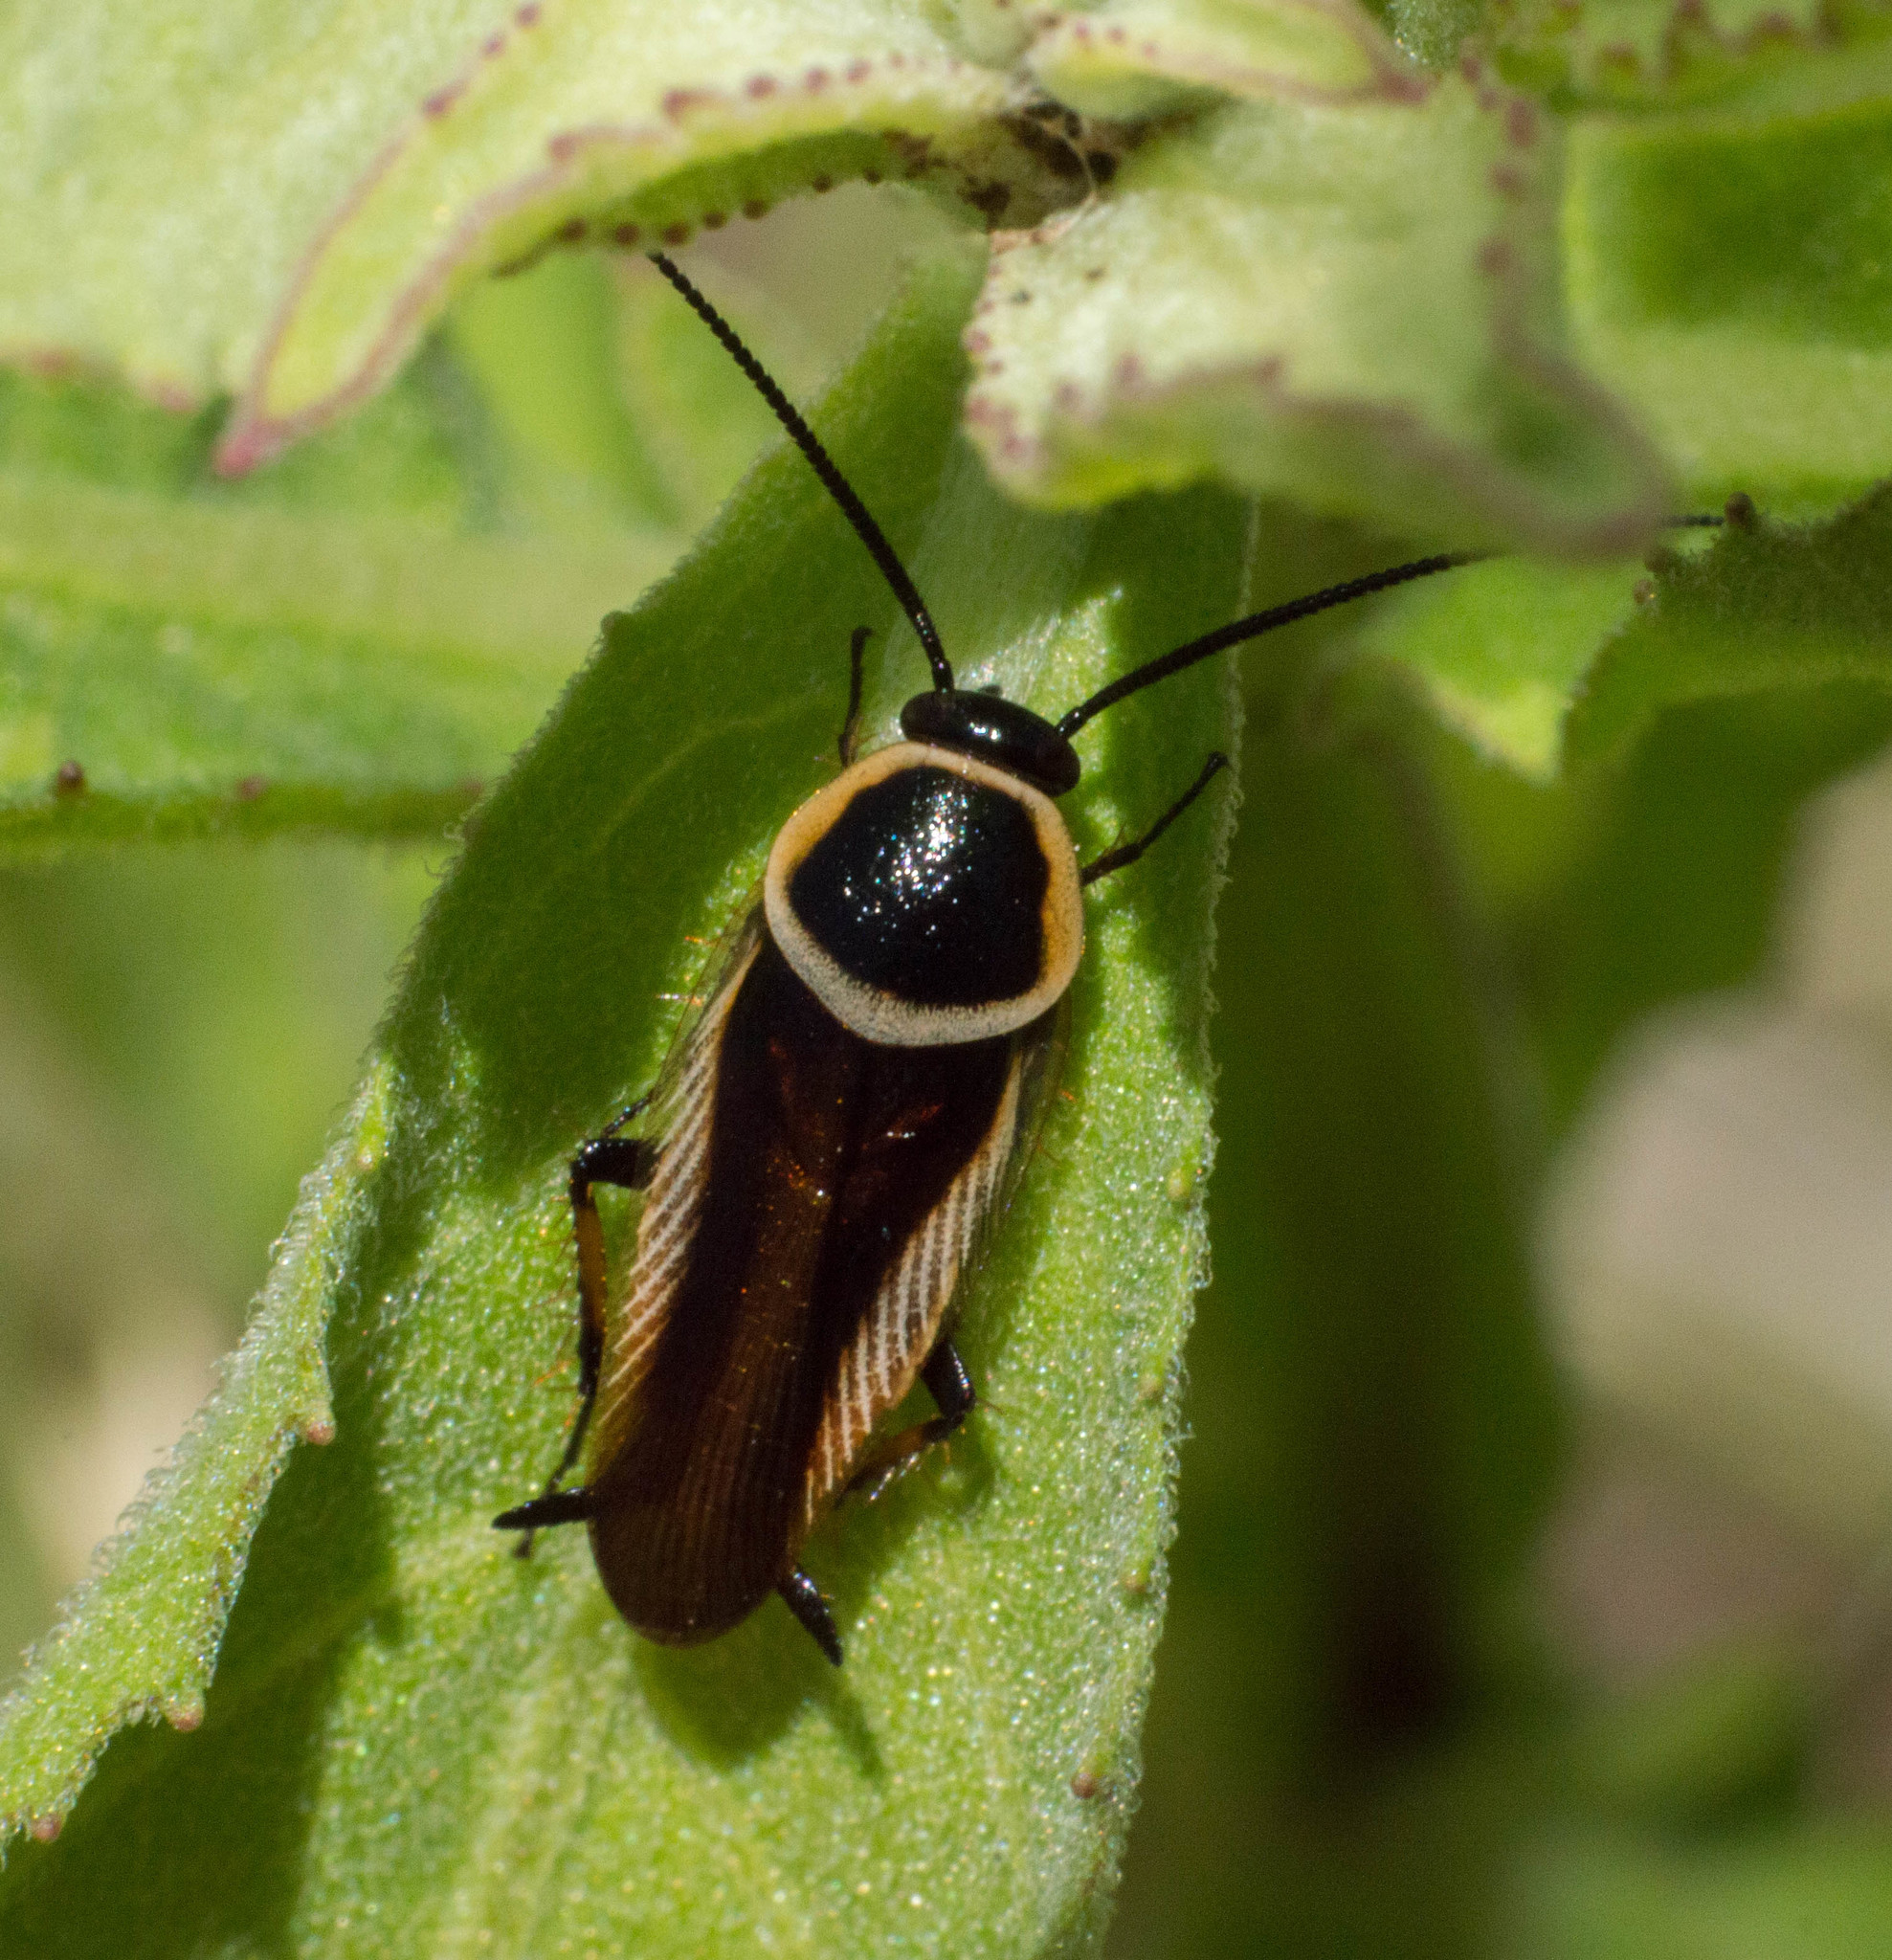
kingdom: Animalia
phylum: Arthropoda
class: Insecta
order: Blattodea
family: Ectobiidae
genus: Pseudomops
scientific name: Pseudomops neglectus
